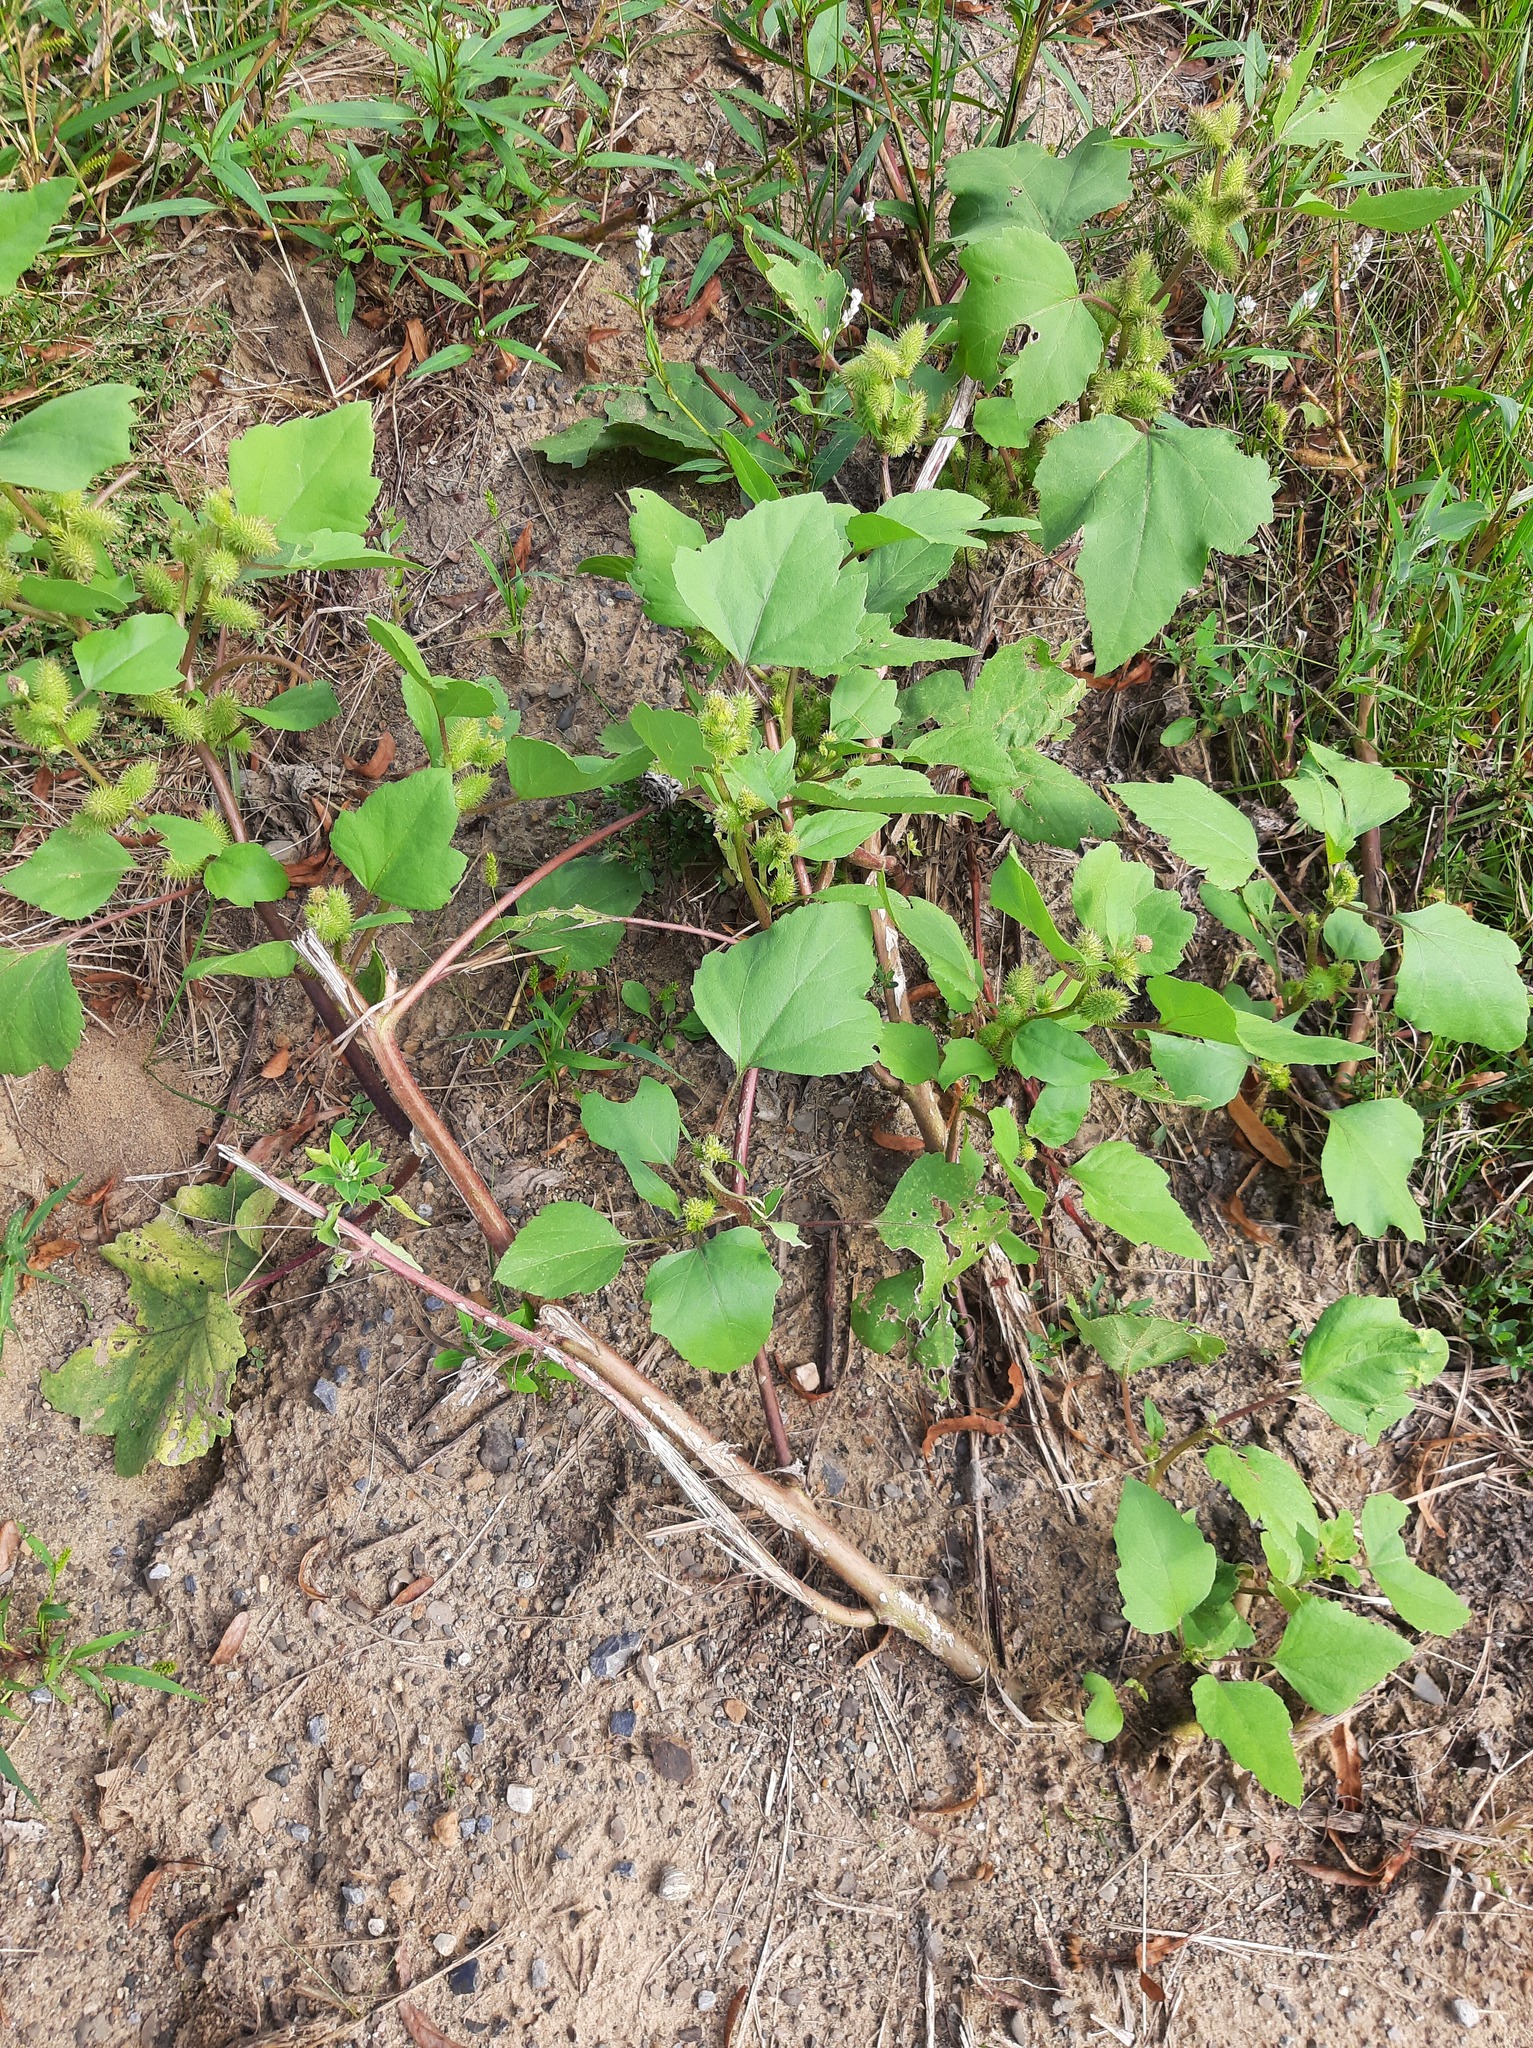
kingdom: Plantae
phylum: Tracheophyta
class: Magnoliopsida
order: Asterales
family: Asteraceae
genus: Xanthium
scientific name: Xanthium strumarium
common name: Rough cocklebur
